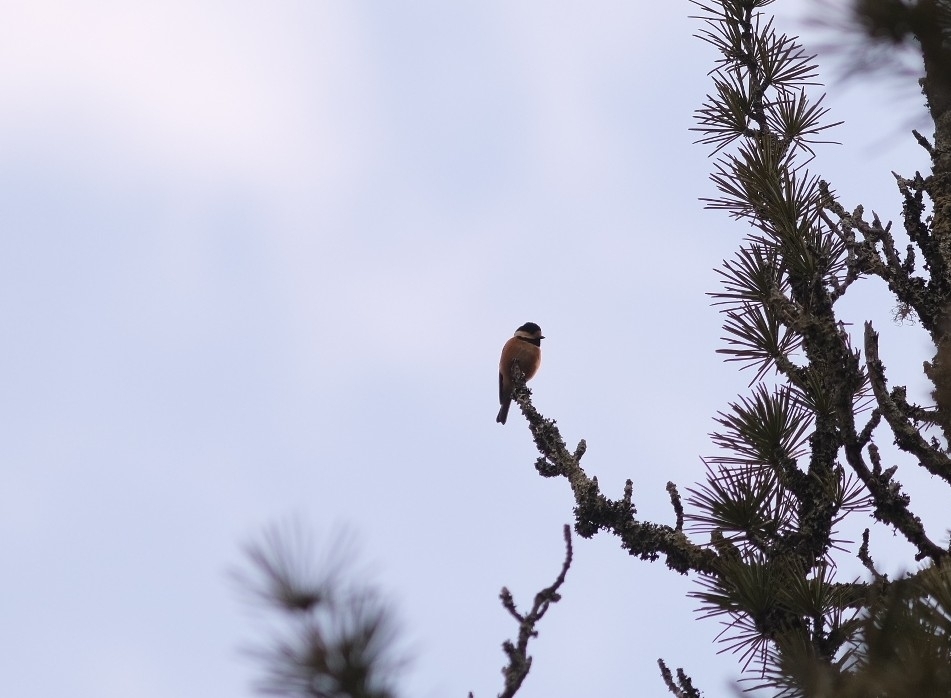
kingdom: Animalia
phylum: Chordata
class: Aves
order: Passeriformes
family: Paridae
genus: Poecile
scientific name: Poecile varius
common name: Varied tit
